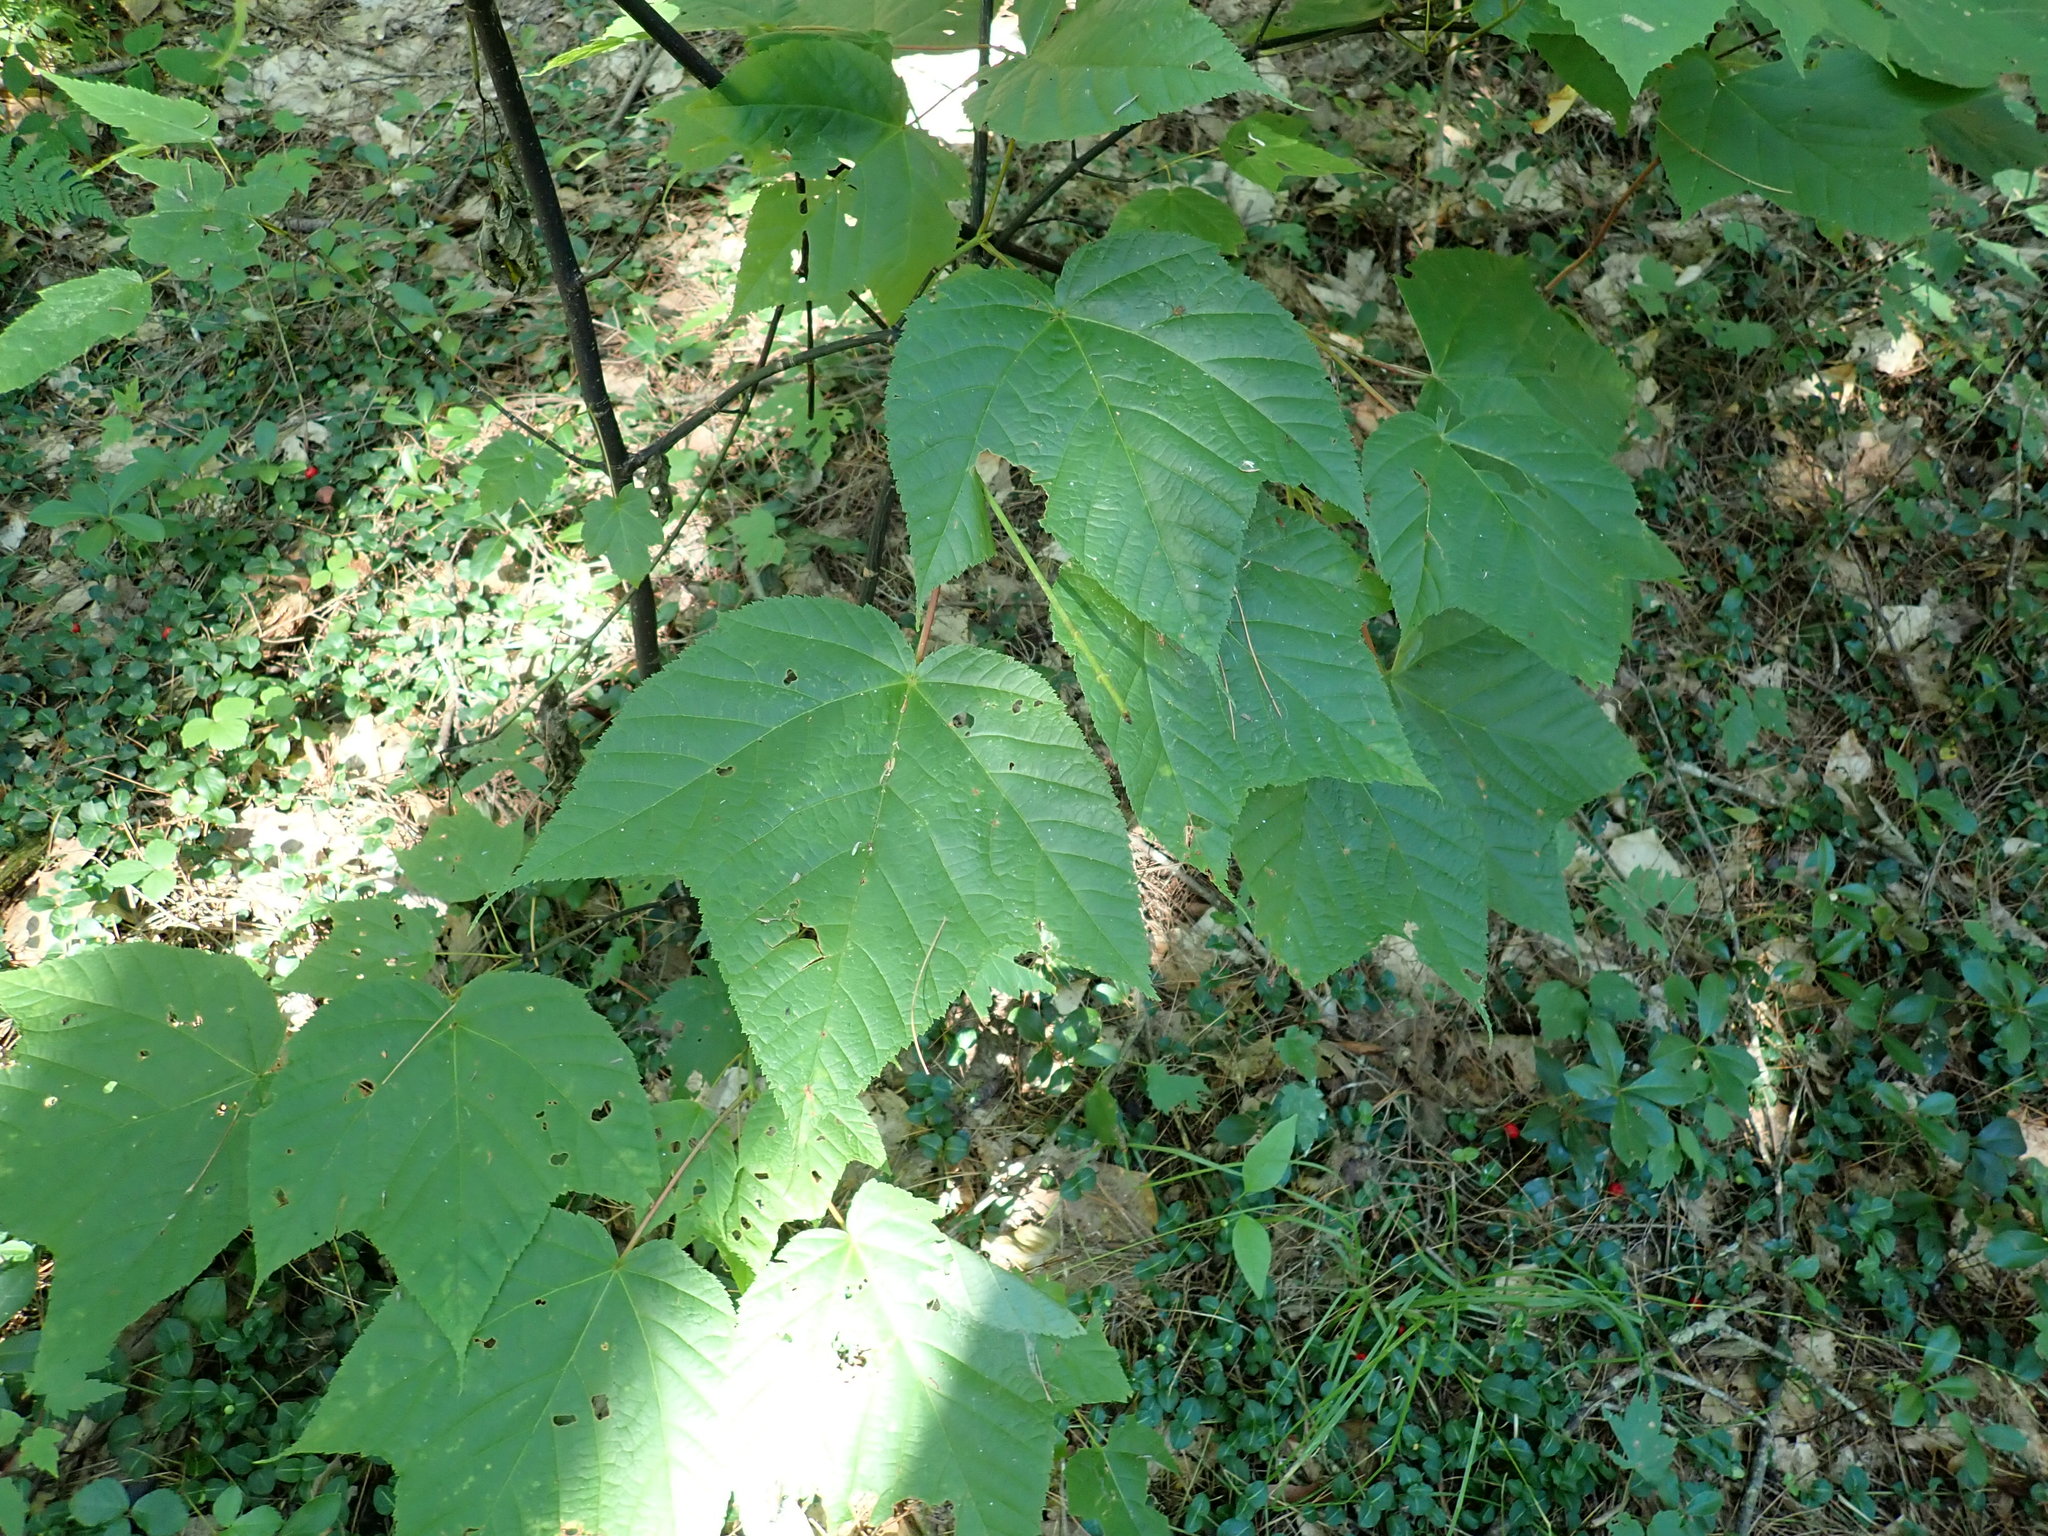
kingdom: Plantae
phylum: Tracheophyta
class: Magnoliopsida
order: Sapindales
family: Sapindaceae
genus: Acer
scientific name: Acer pensylvanicum
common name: Moosewood
